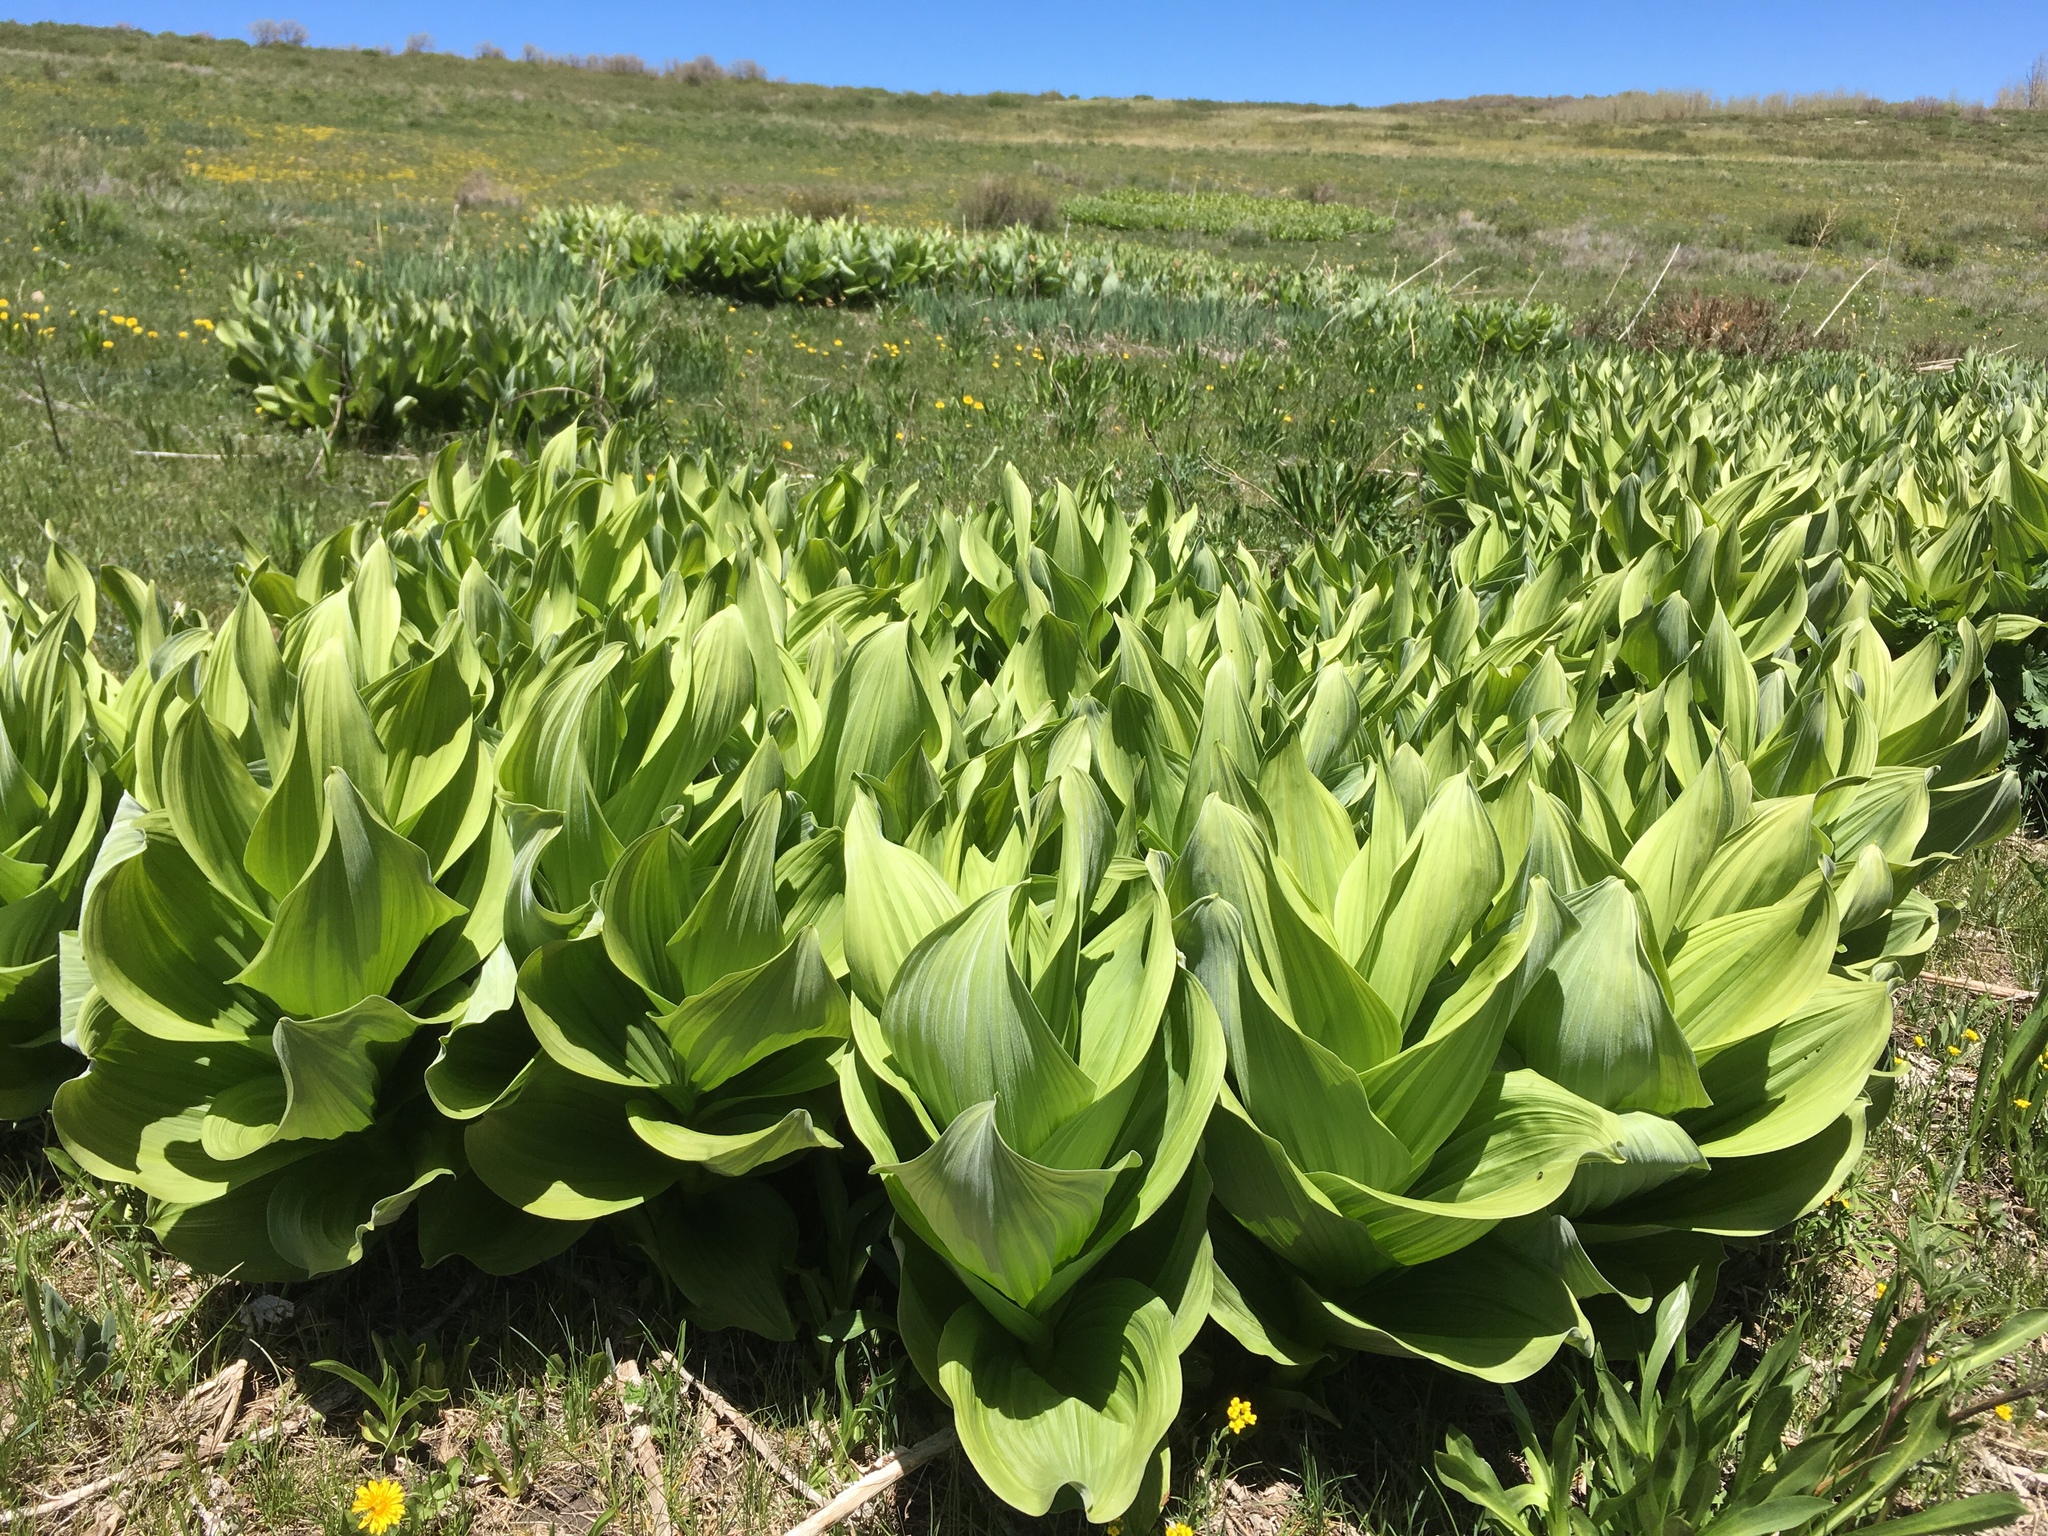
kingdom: Plantae
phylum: Tracheophyta
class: Liliopsida
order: Liliales
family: Melanthiaceae
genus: Veratrum
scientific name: Veratrum californicum
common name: California veratrum
